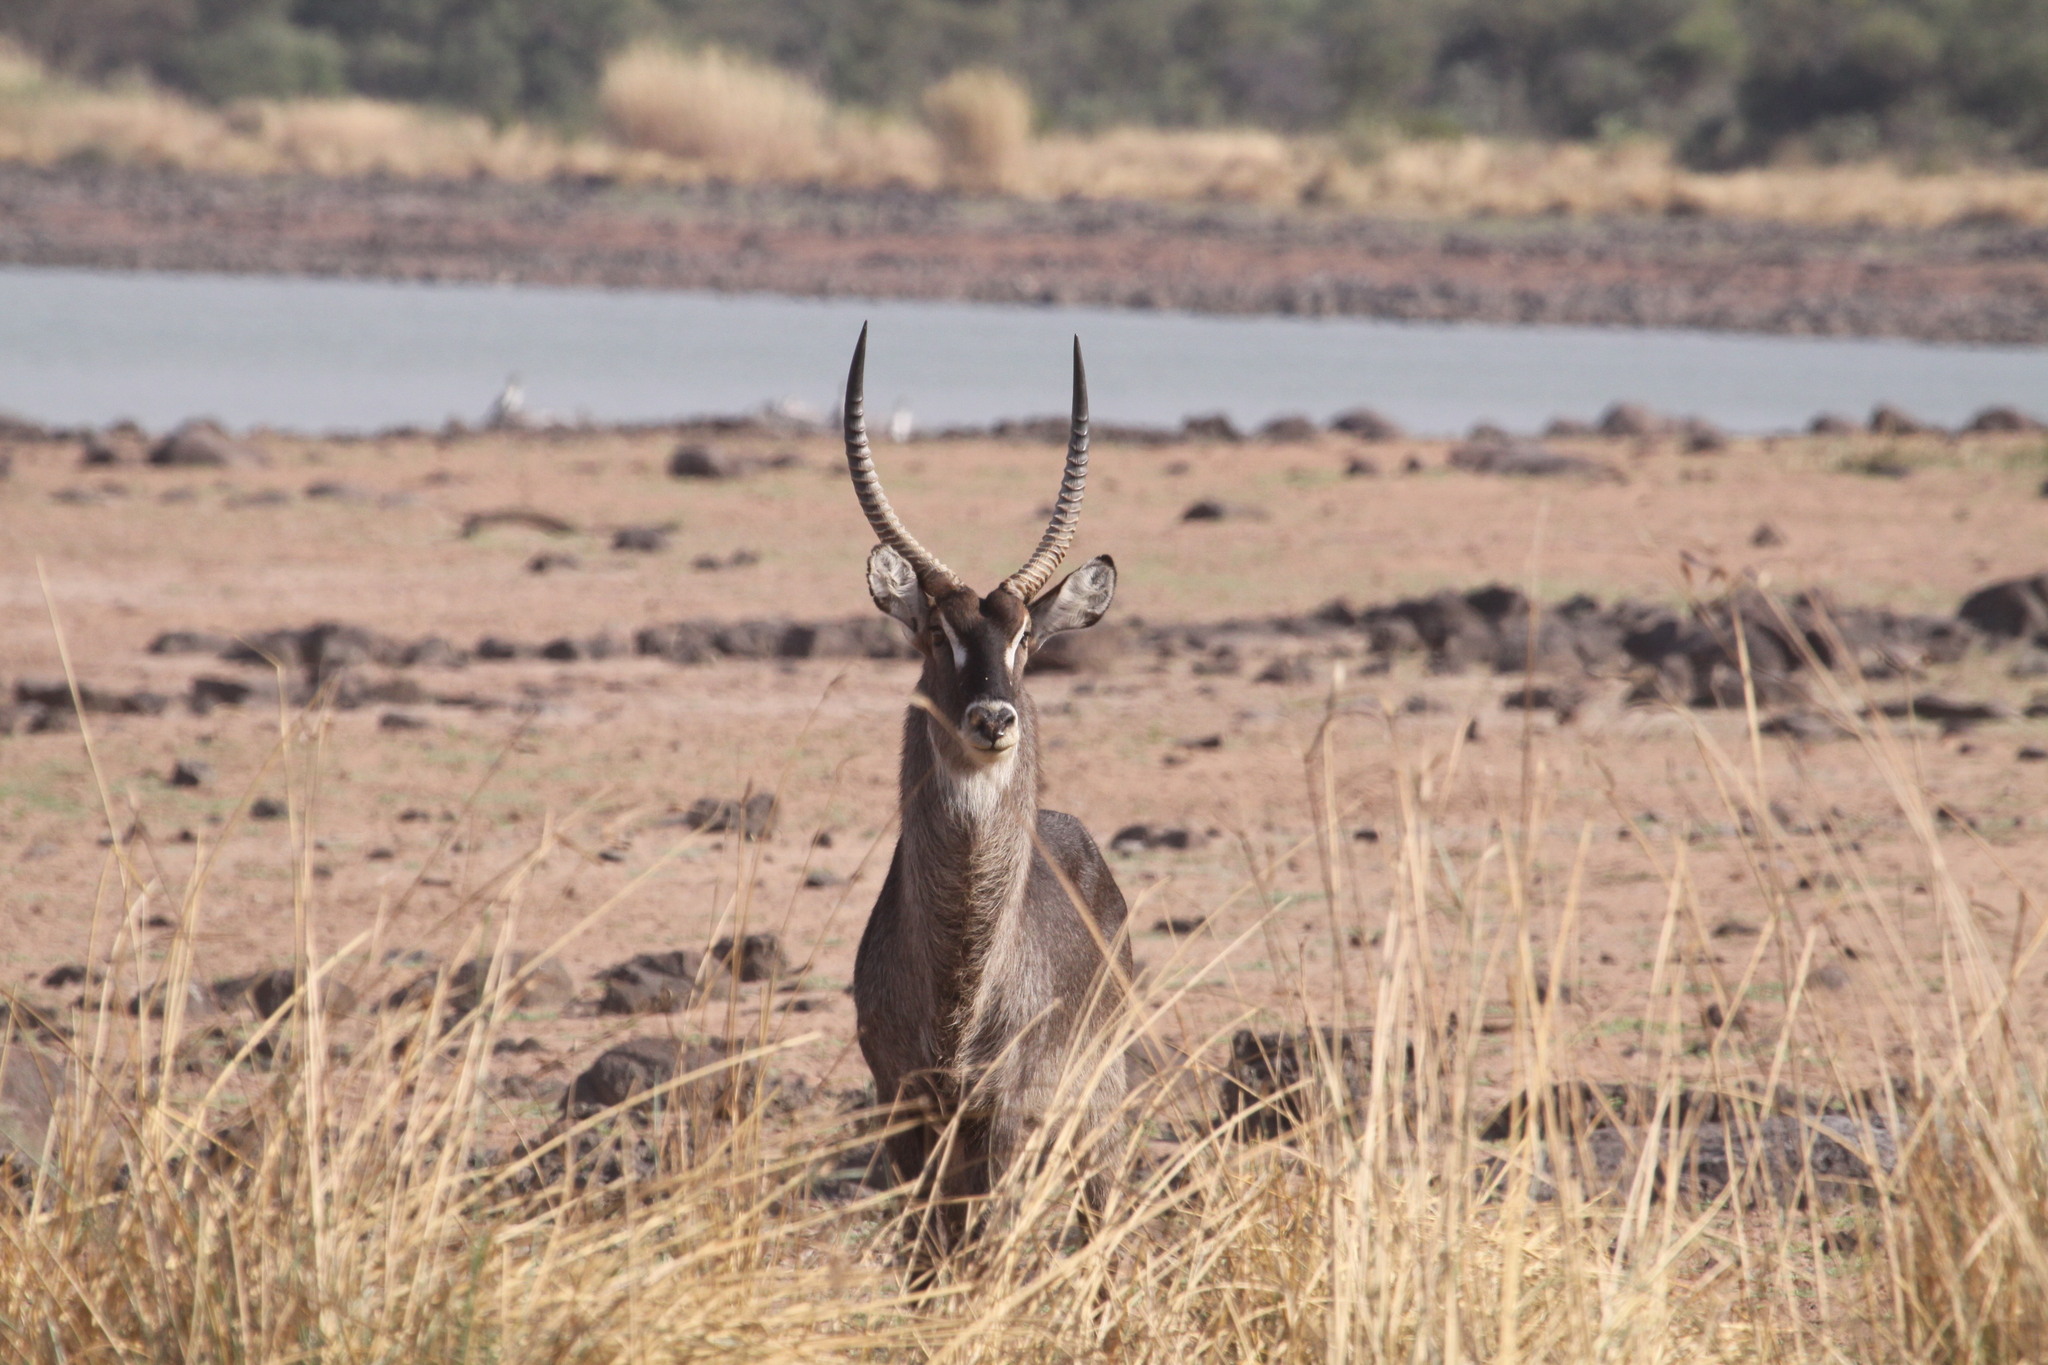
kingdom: Animalia
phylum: Chordata
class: Mammalia
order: Artiodactyla
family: Bovidae
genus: Kobus
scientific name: Kobus ellipsiprymnus
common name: Waterbuck
